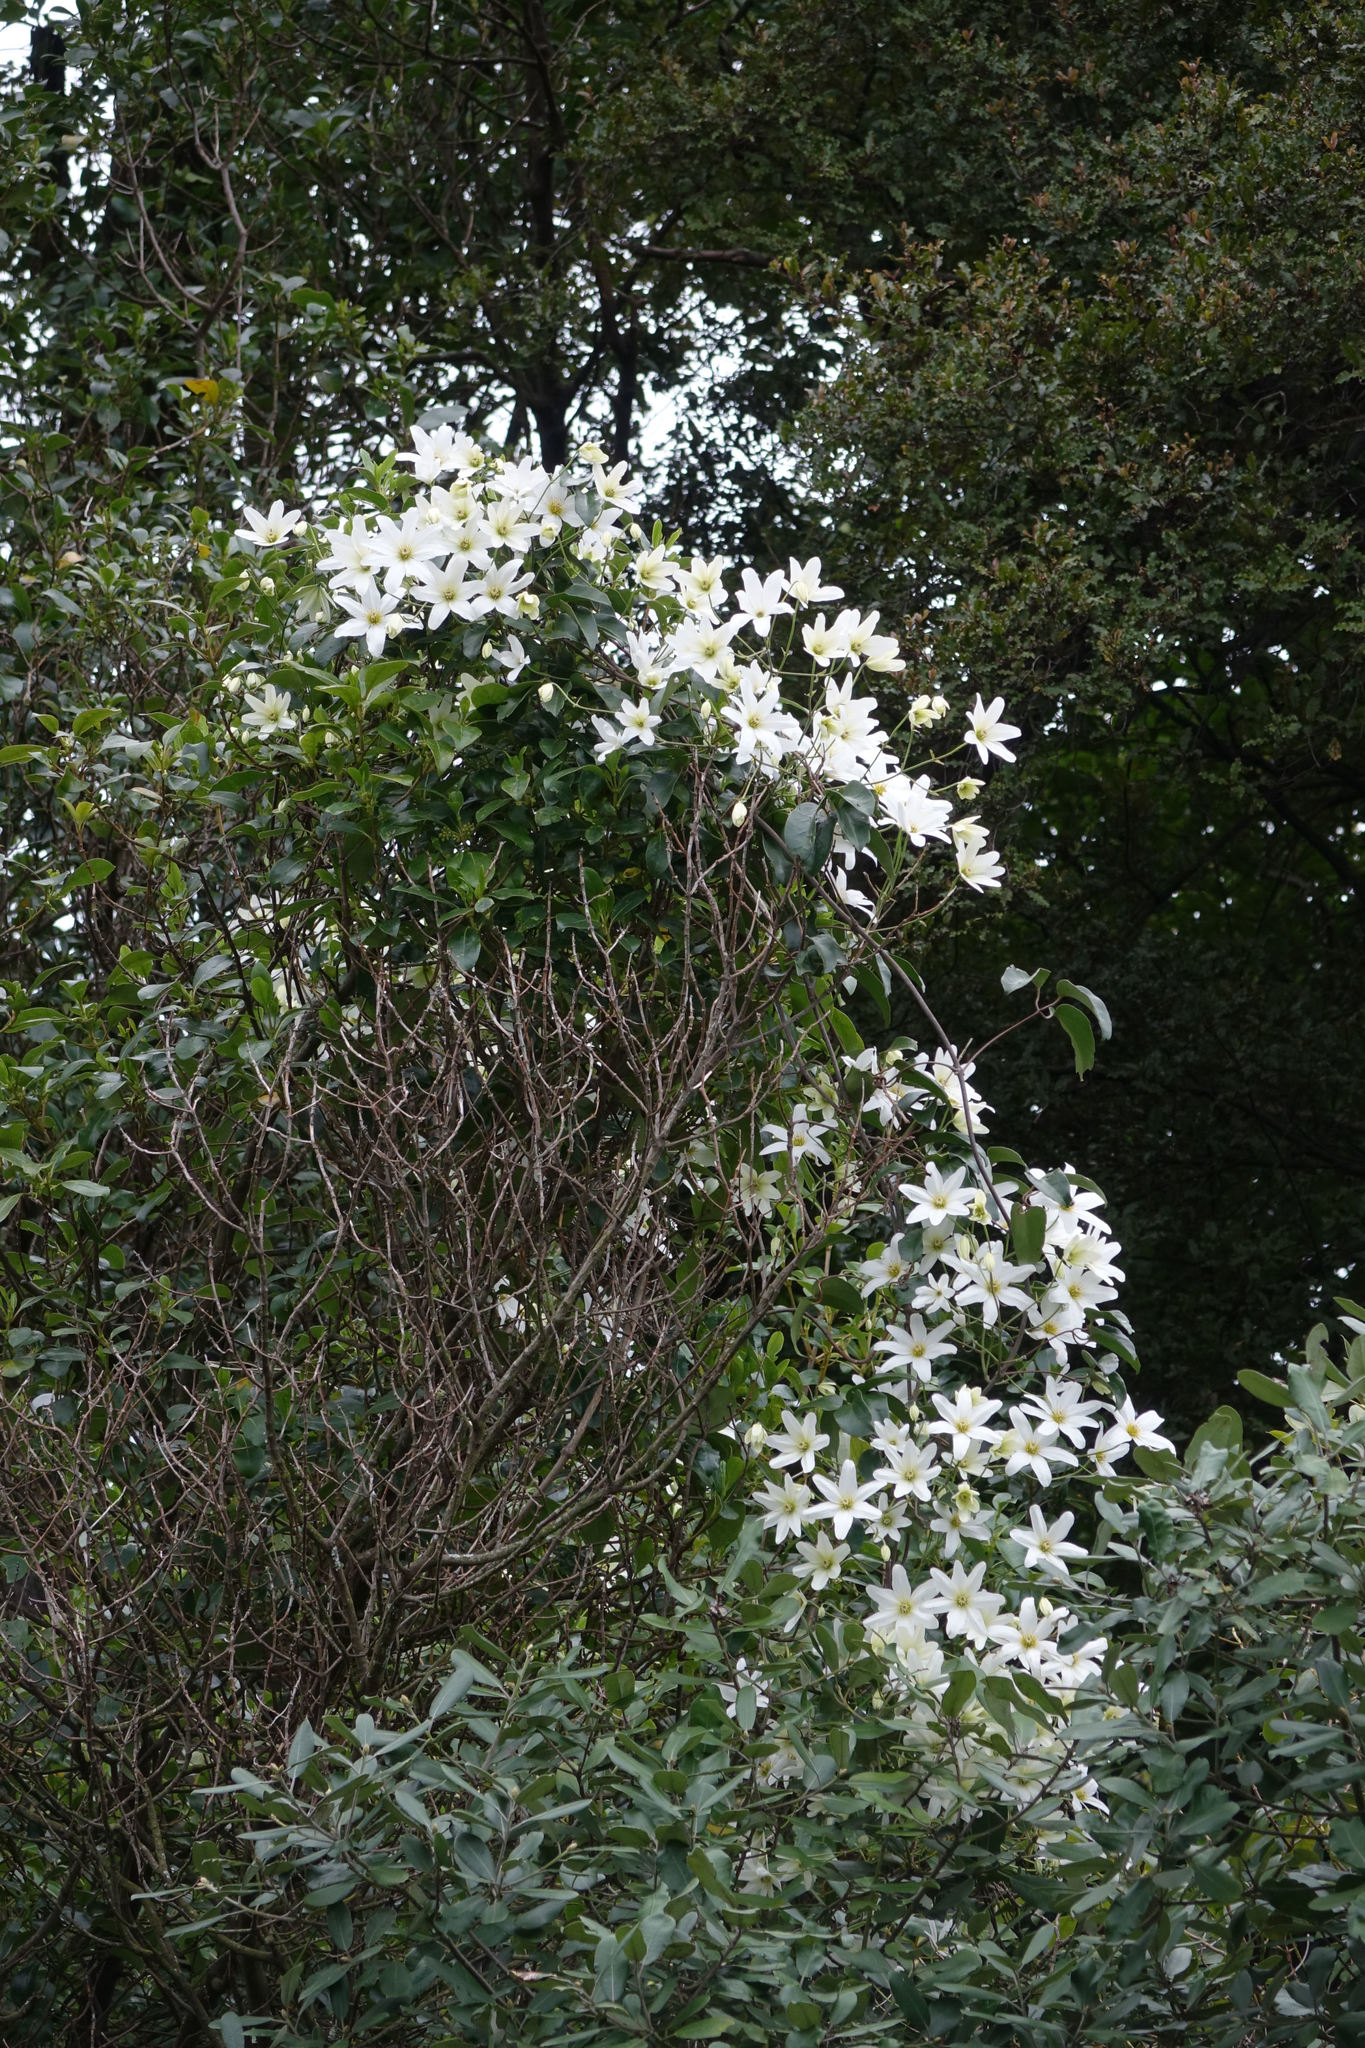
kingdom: Plantae
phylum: Tracheophyta
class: Magnoliopsida
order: Ranunculales
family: Ranunculaceae
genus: Clematis
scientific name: Clematis paniculata
